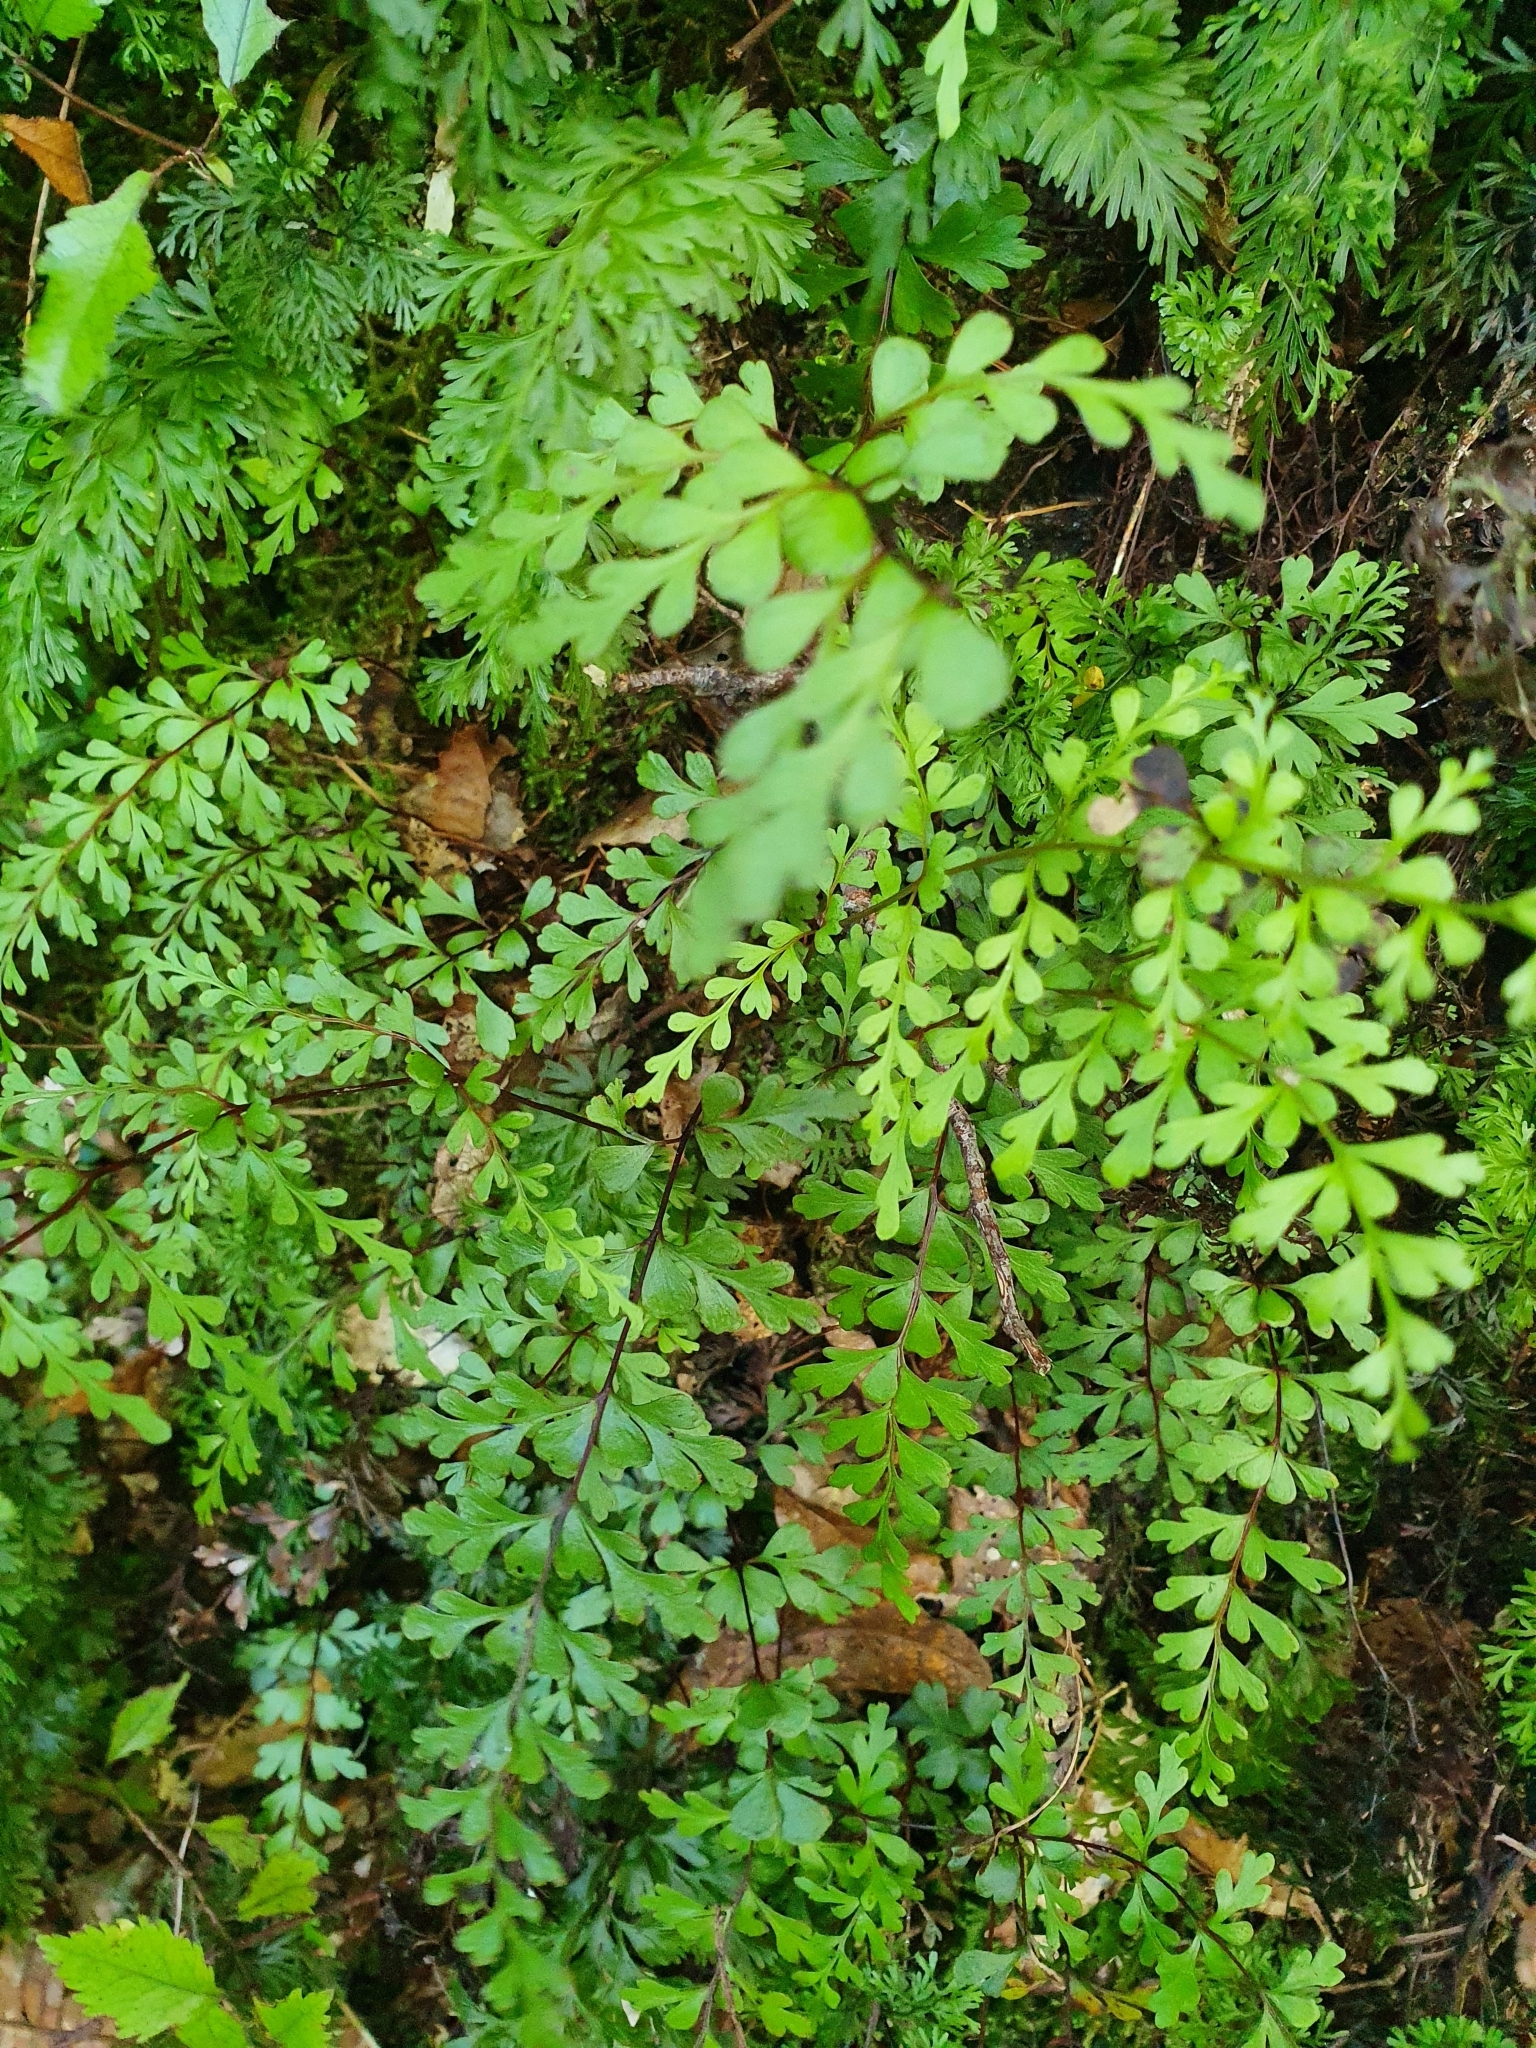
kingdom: Plantae
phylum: Tracheophyta
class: Polypodiopsida
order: Polypodiales
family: Lindsaeaceae
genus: Lindsaea
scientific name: Lindsaea trichomanoides
